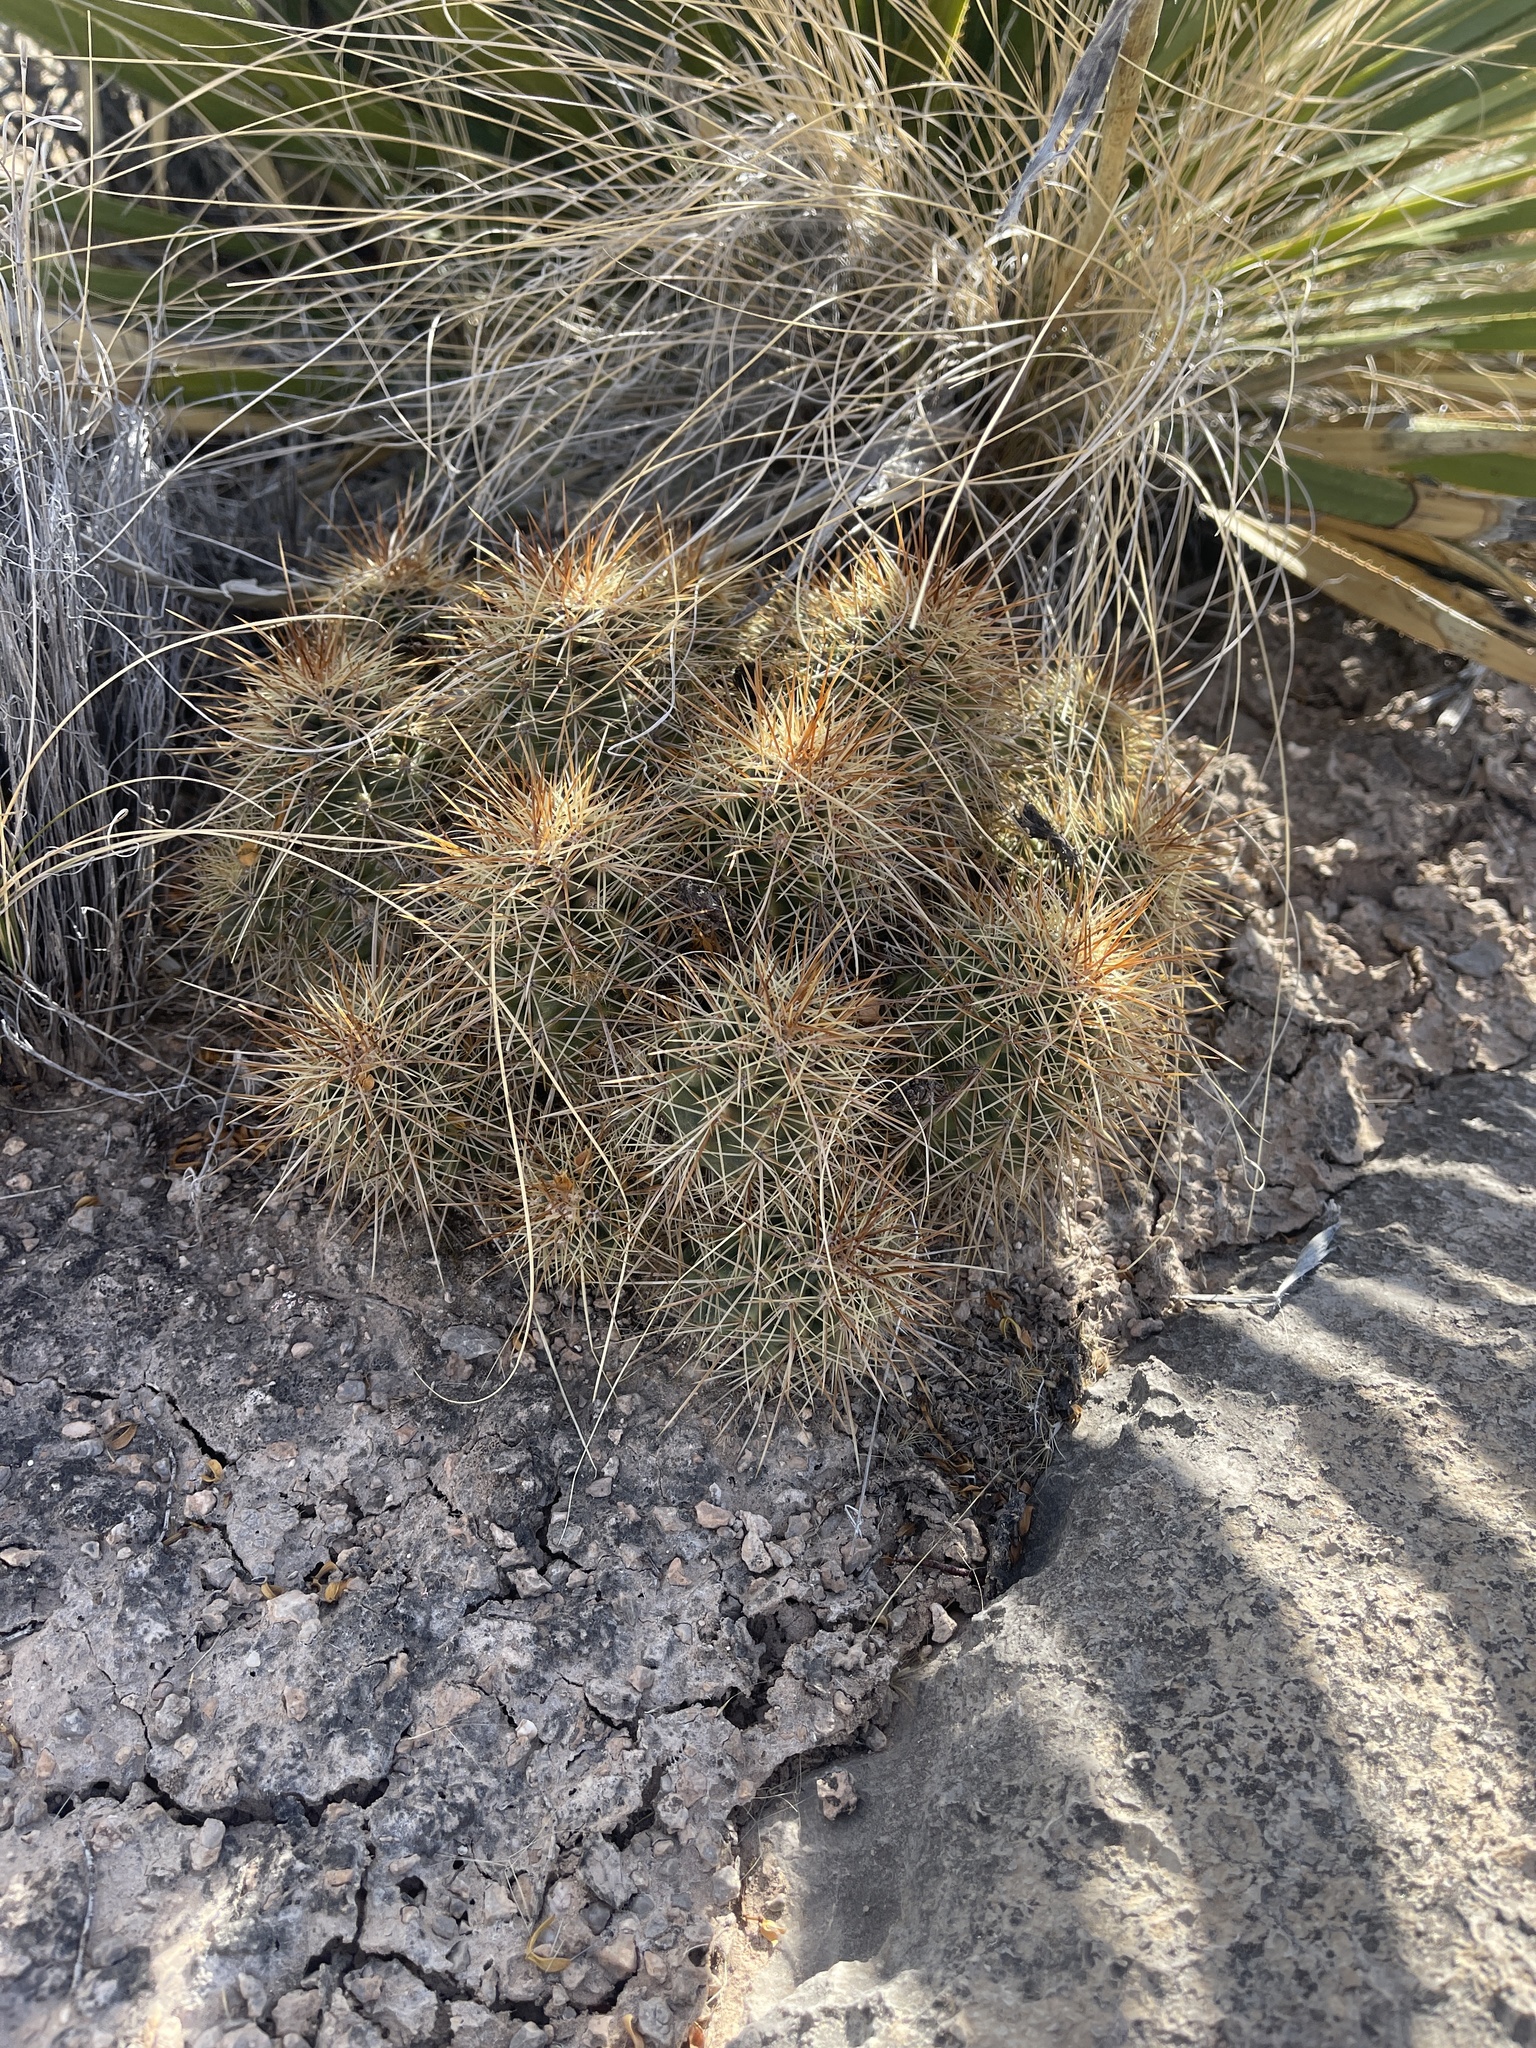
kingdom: Plantae
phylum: Tracheophyta
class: Magnoliopsida
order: Caryophyllales
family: Cactaceae
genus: Echinocereus
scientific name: Echinocereus coccineus
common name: Scarlet hedgehog cactus
